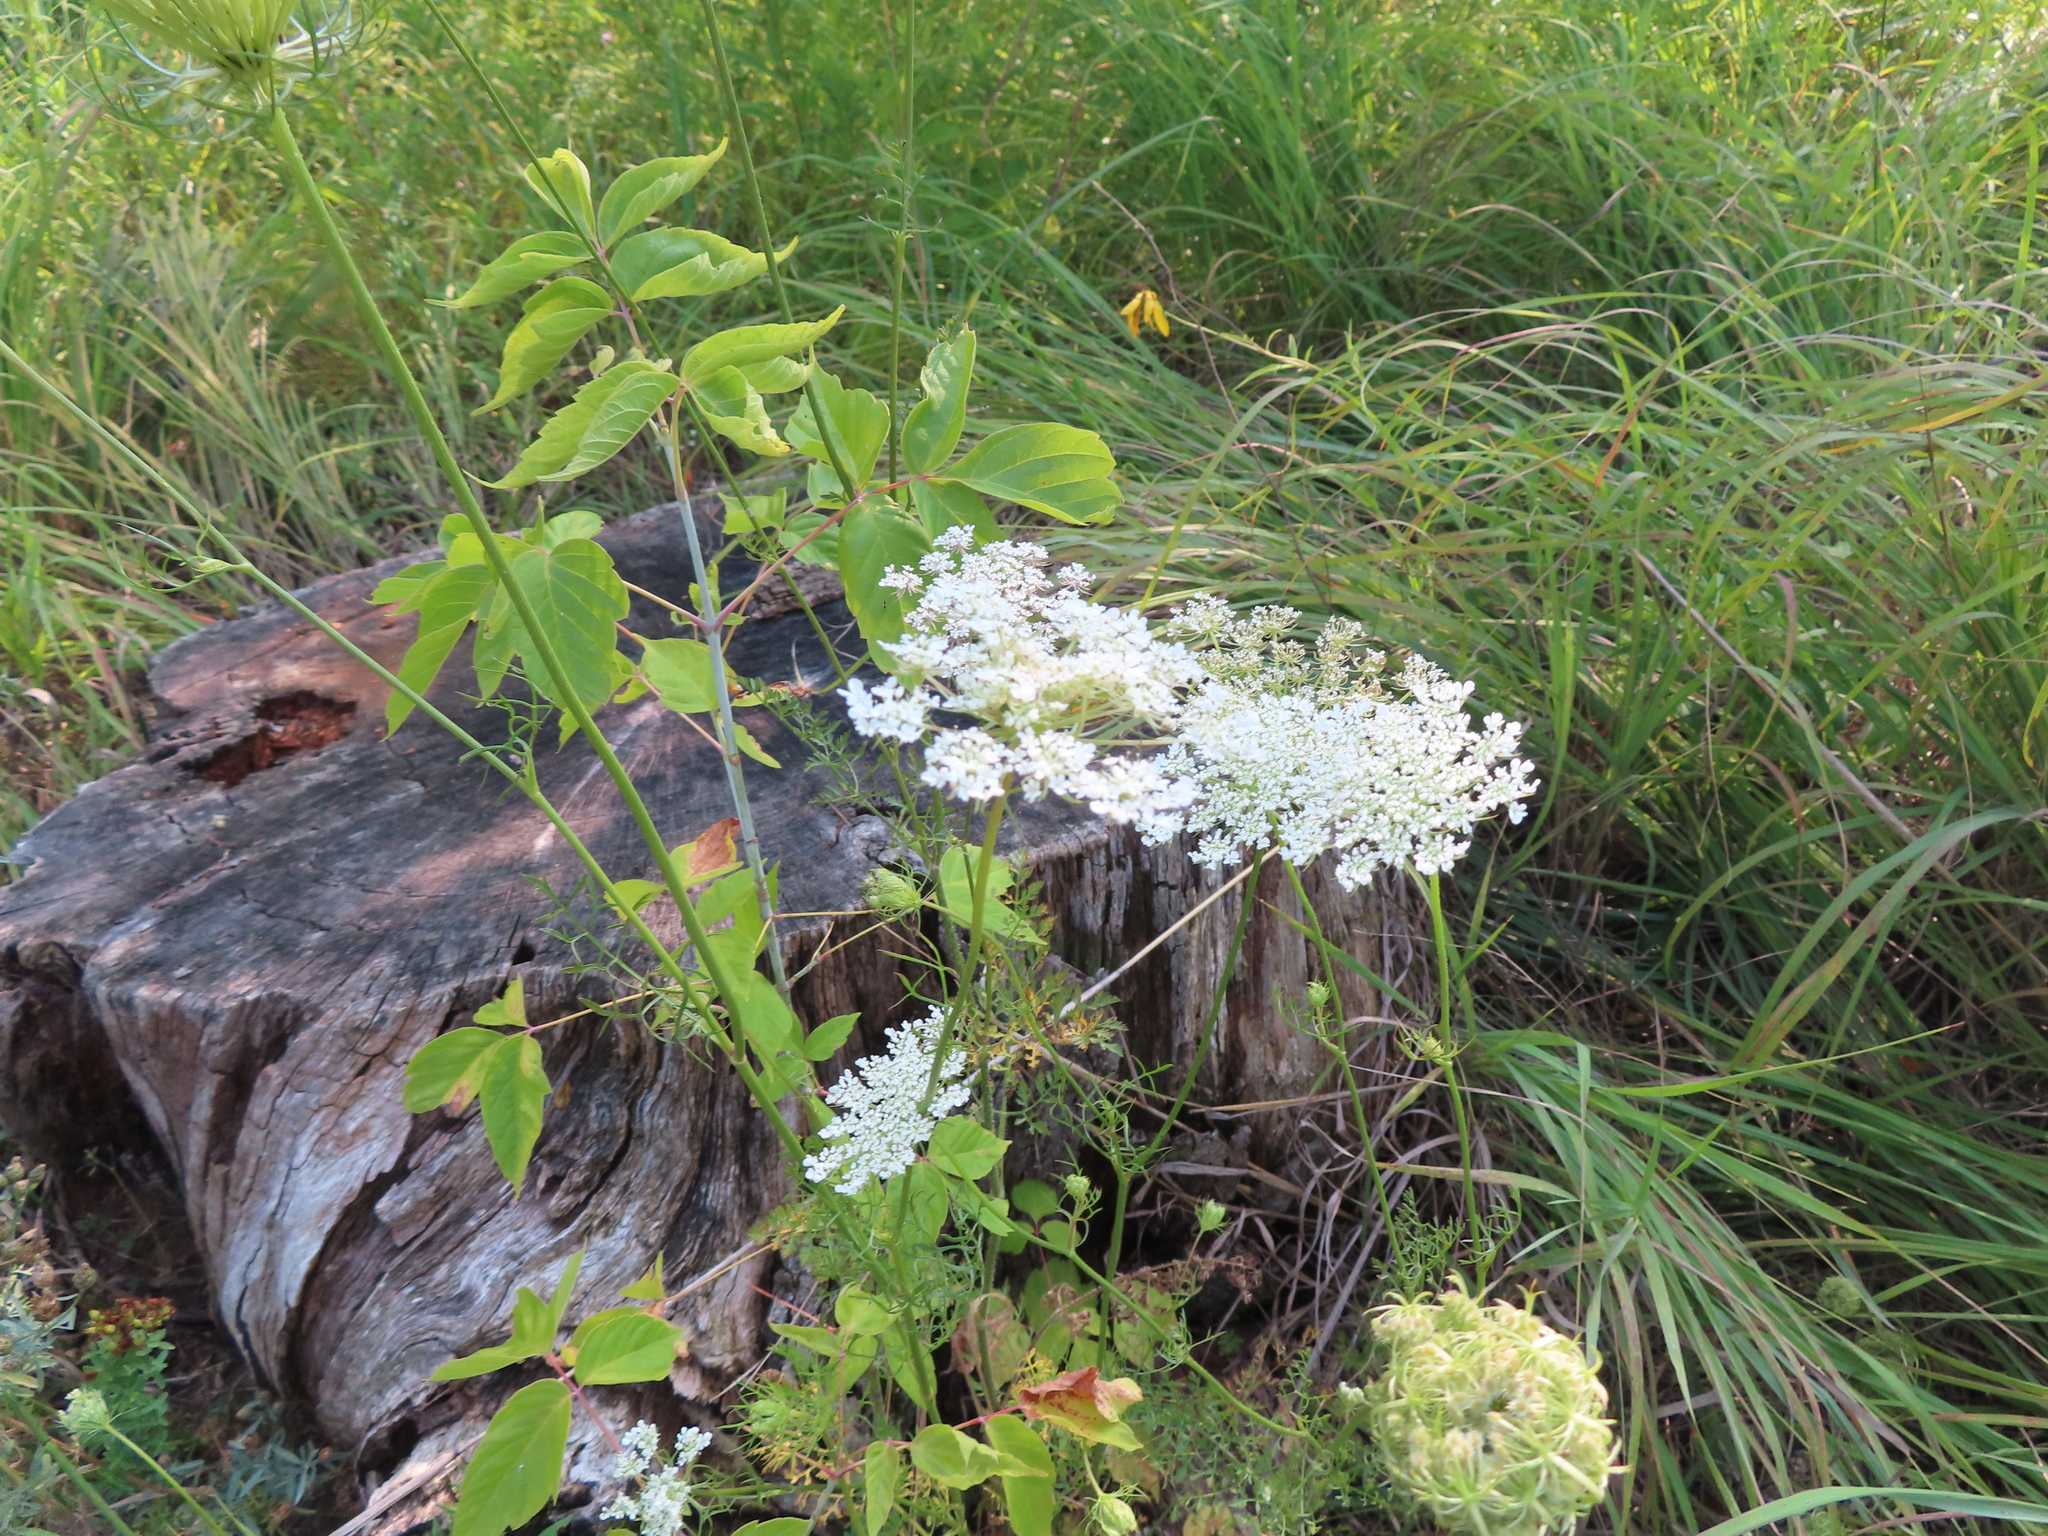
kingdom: Plantae
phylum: Tracheophyta
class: Magnoliopsida
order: Sapindales
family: Sapindaceae
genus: Acer
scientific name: Acer negundo
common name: Ashleaf maple
